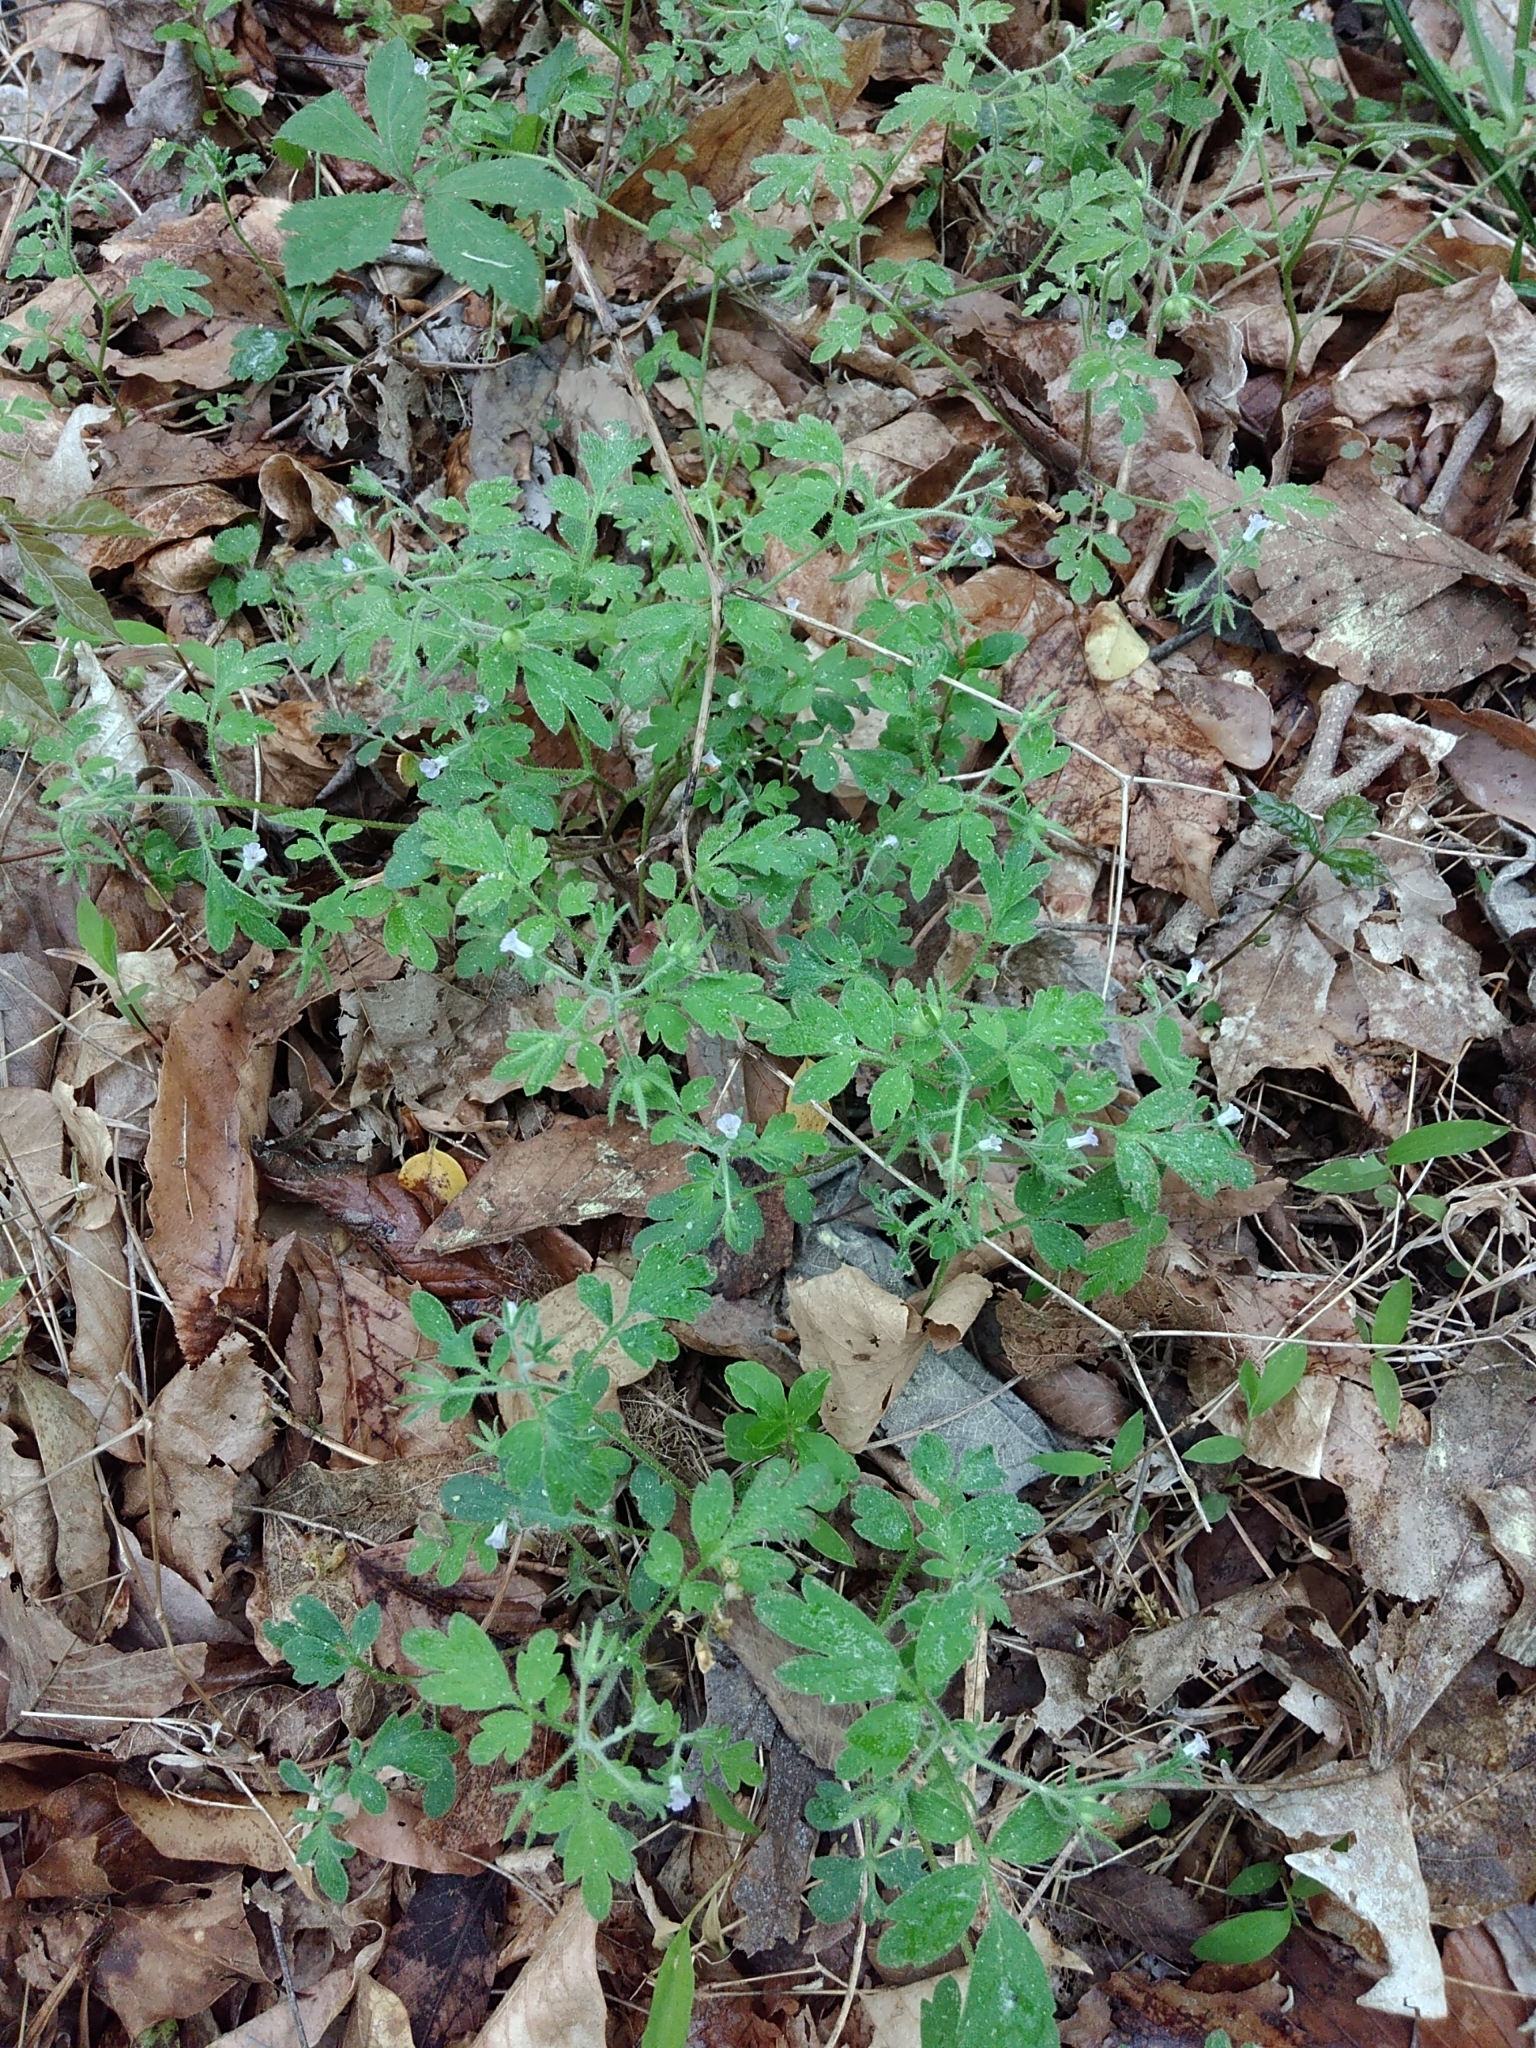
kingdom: Plantae
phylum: Tracheophyta
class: Magnoliopsida
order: Boraginales
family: Hydrophyllaceae
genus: Phacelia
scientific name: Phacelia covillei
